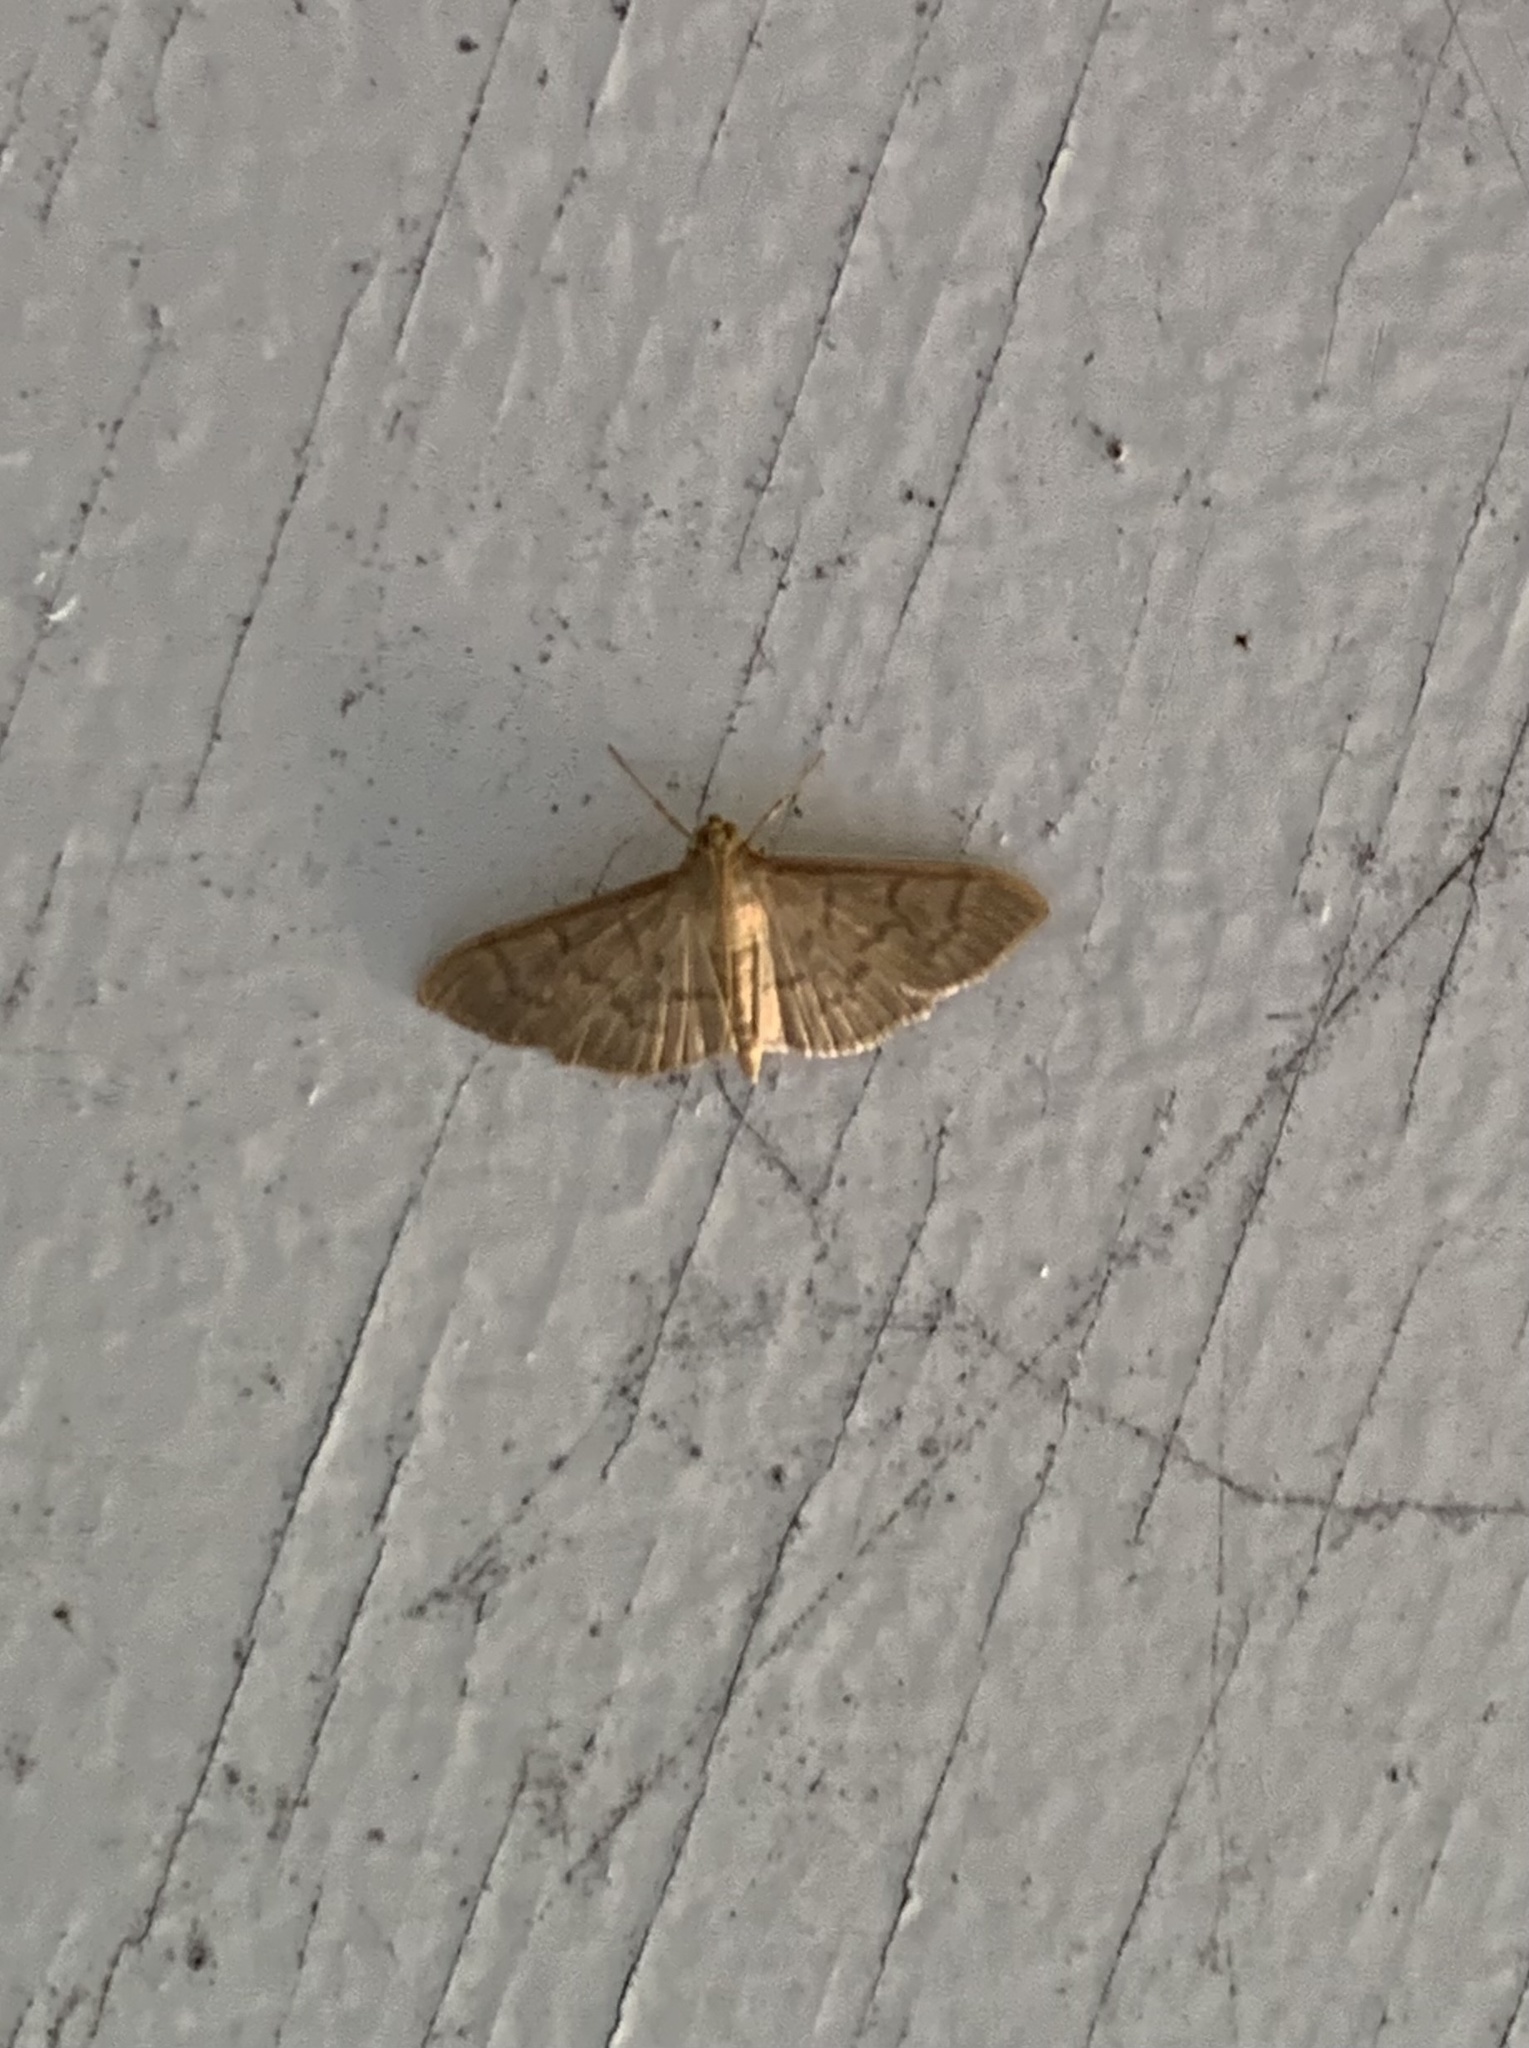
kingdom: Animalia
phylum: Arthropoda
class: Insecta
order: Lepidoptera
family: Crambidae
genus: Lamprosema
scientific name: Lamprosema Blepharomastix ranalis
